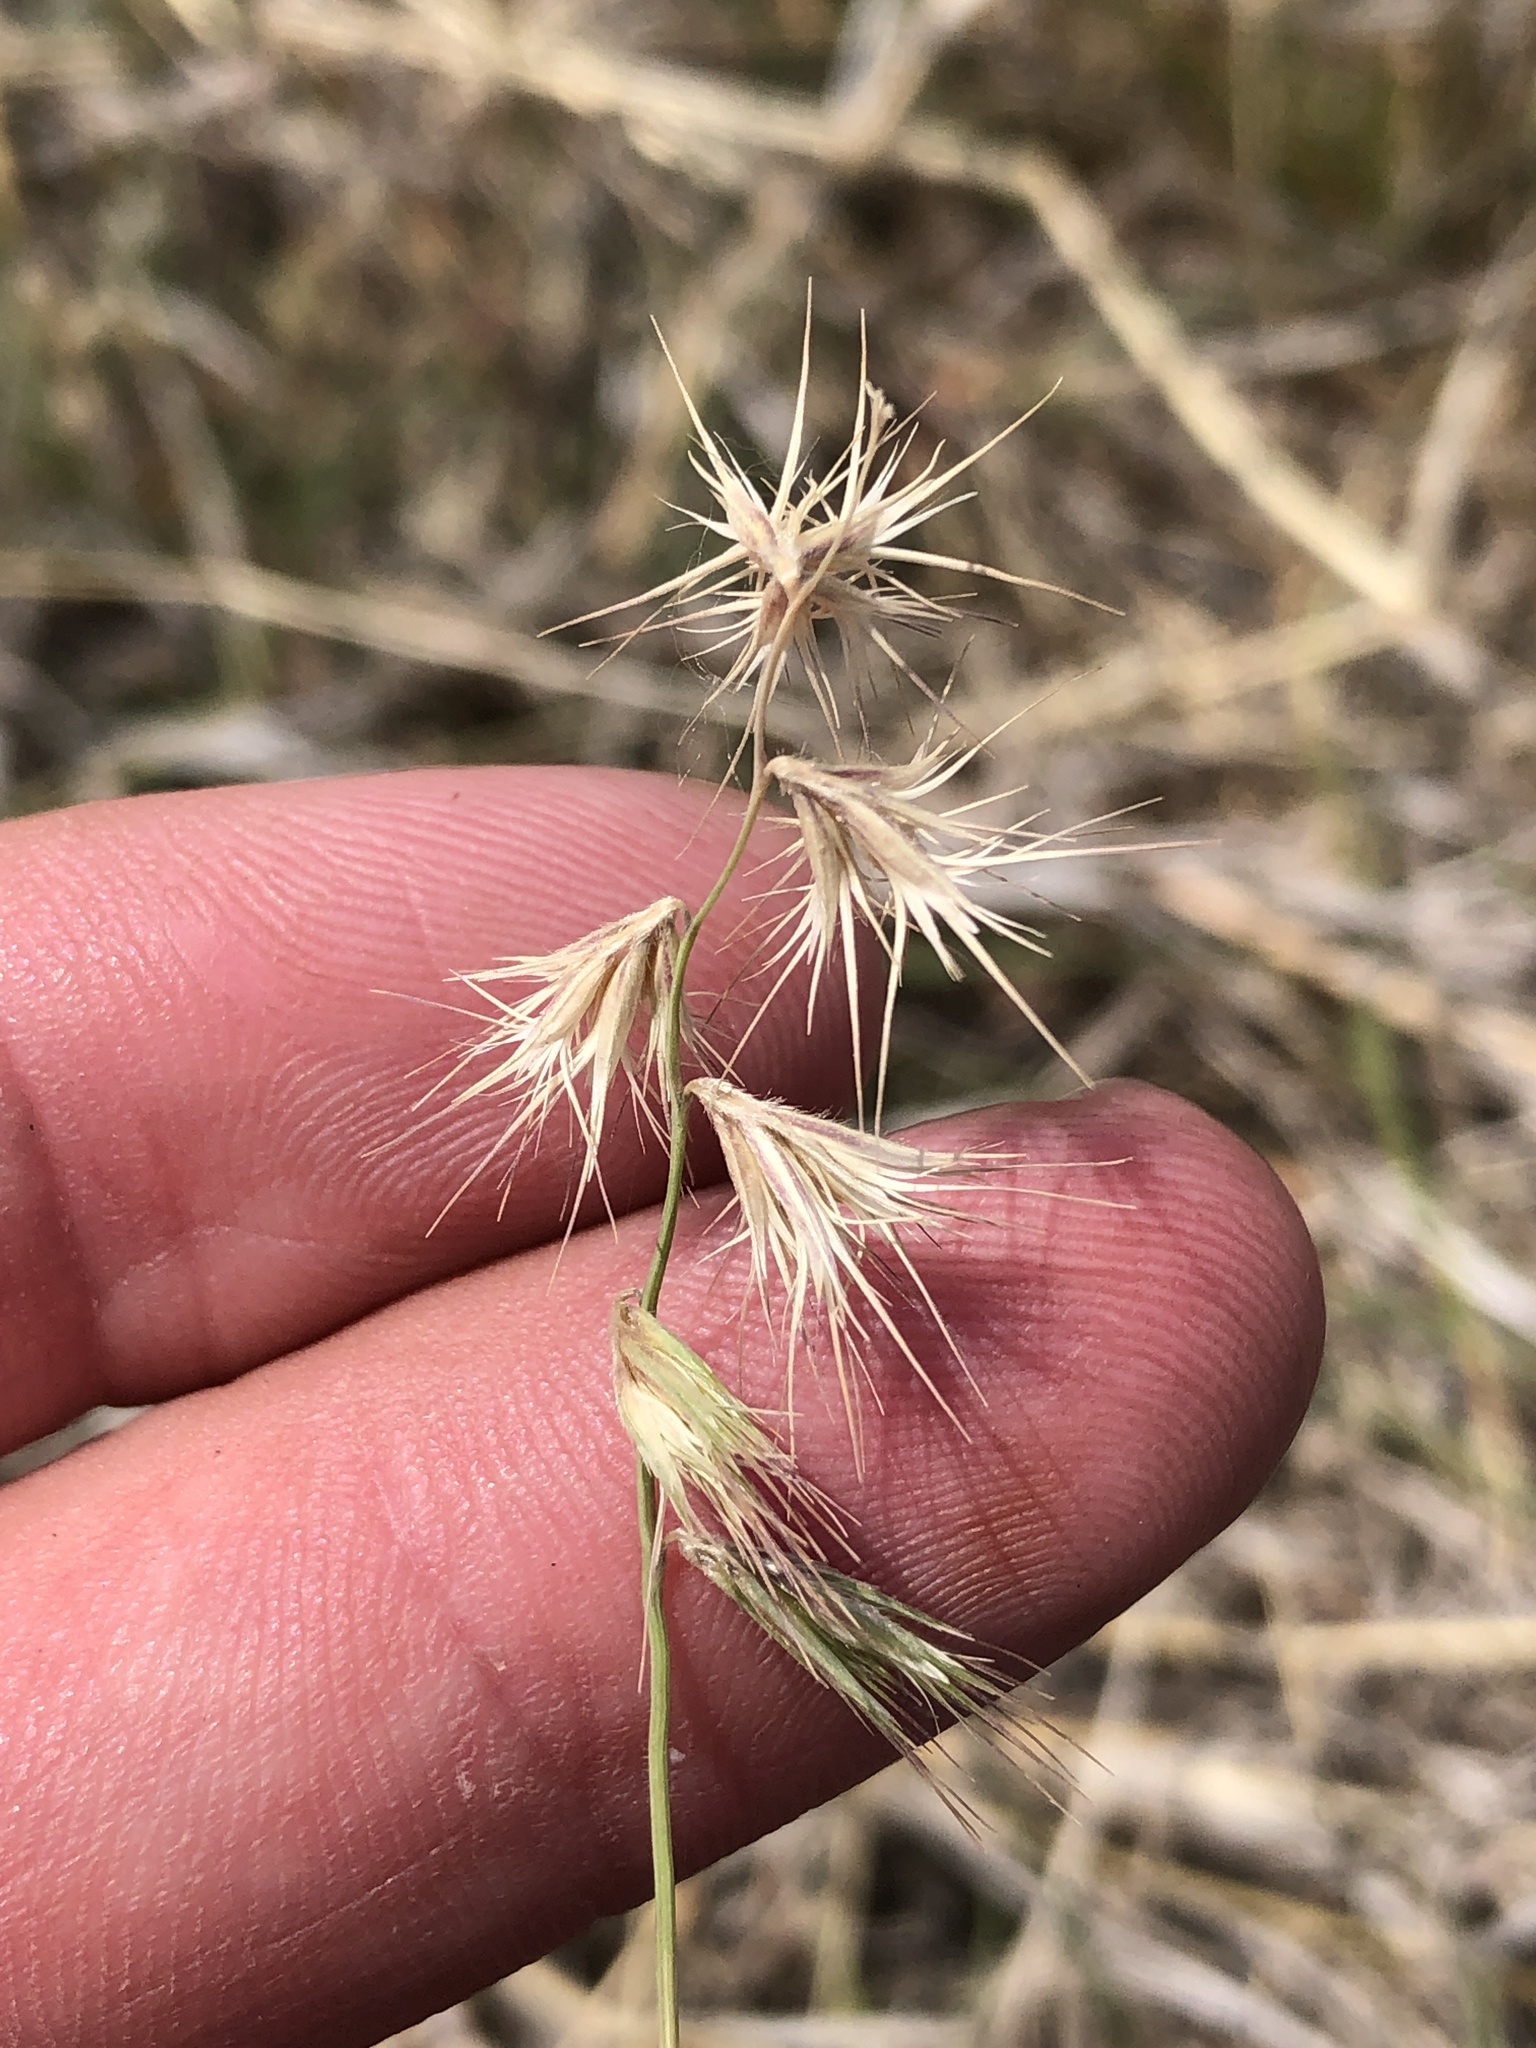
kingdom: Plantae
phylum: Tracheophyta
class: Liliopsida
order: Poales
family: Poaceae
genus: Bouteloua
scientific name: Bouteloua rigidiseta
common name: Texas grama
